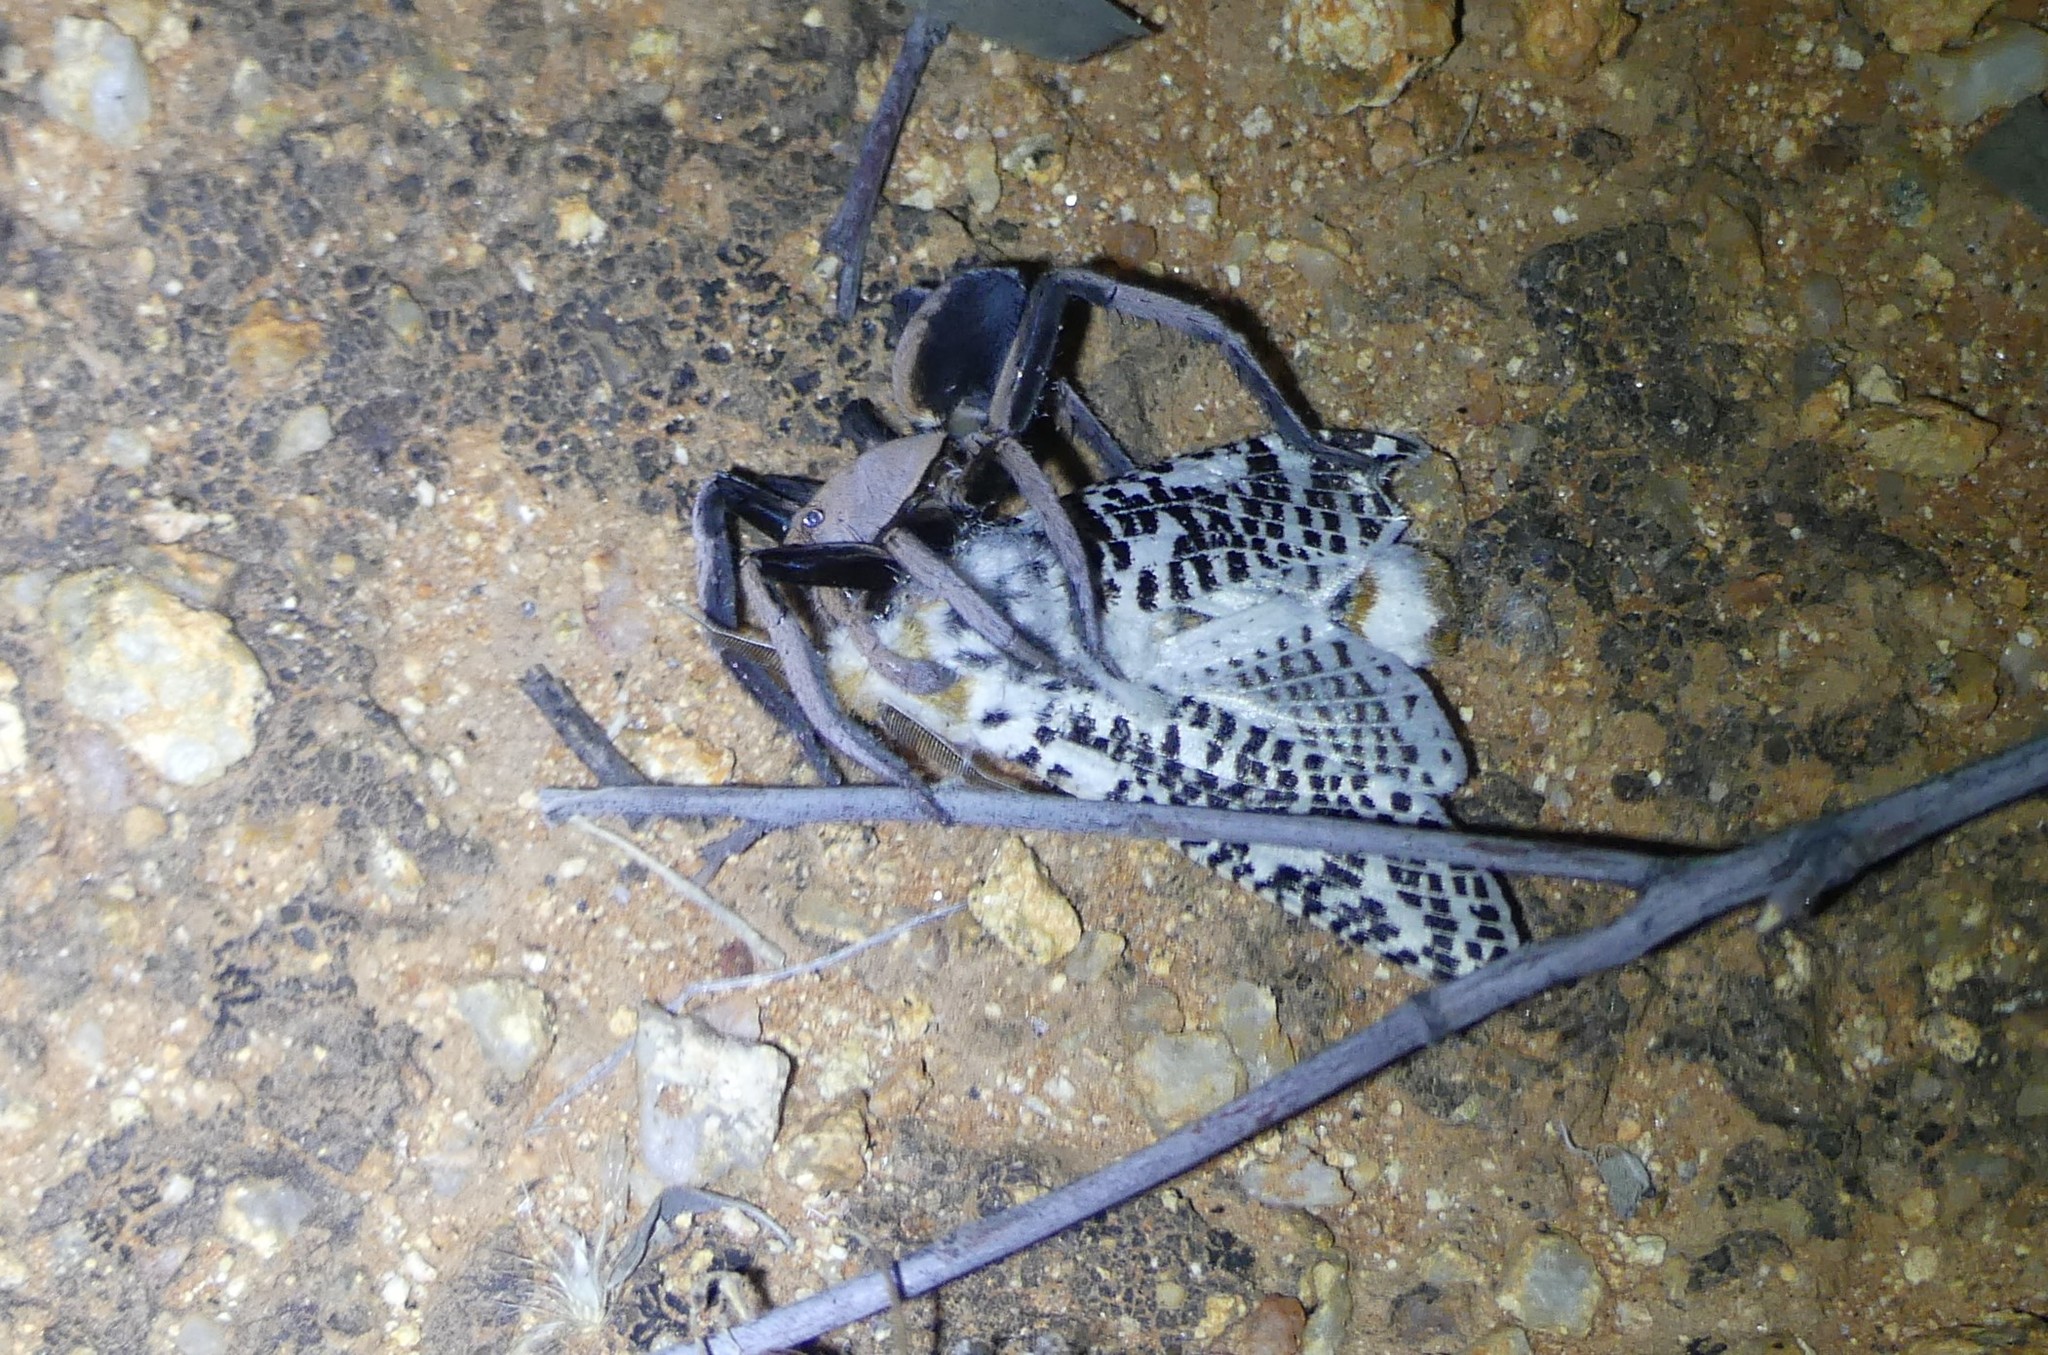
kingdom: Animalia
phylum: Arthropoda
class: Insecta
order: Lepidoptera
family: Cossidae
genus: Endoxyla
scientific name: Endoxyla tigrina
